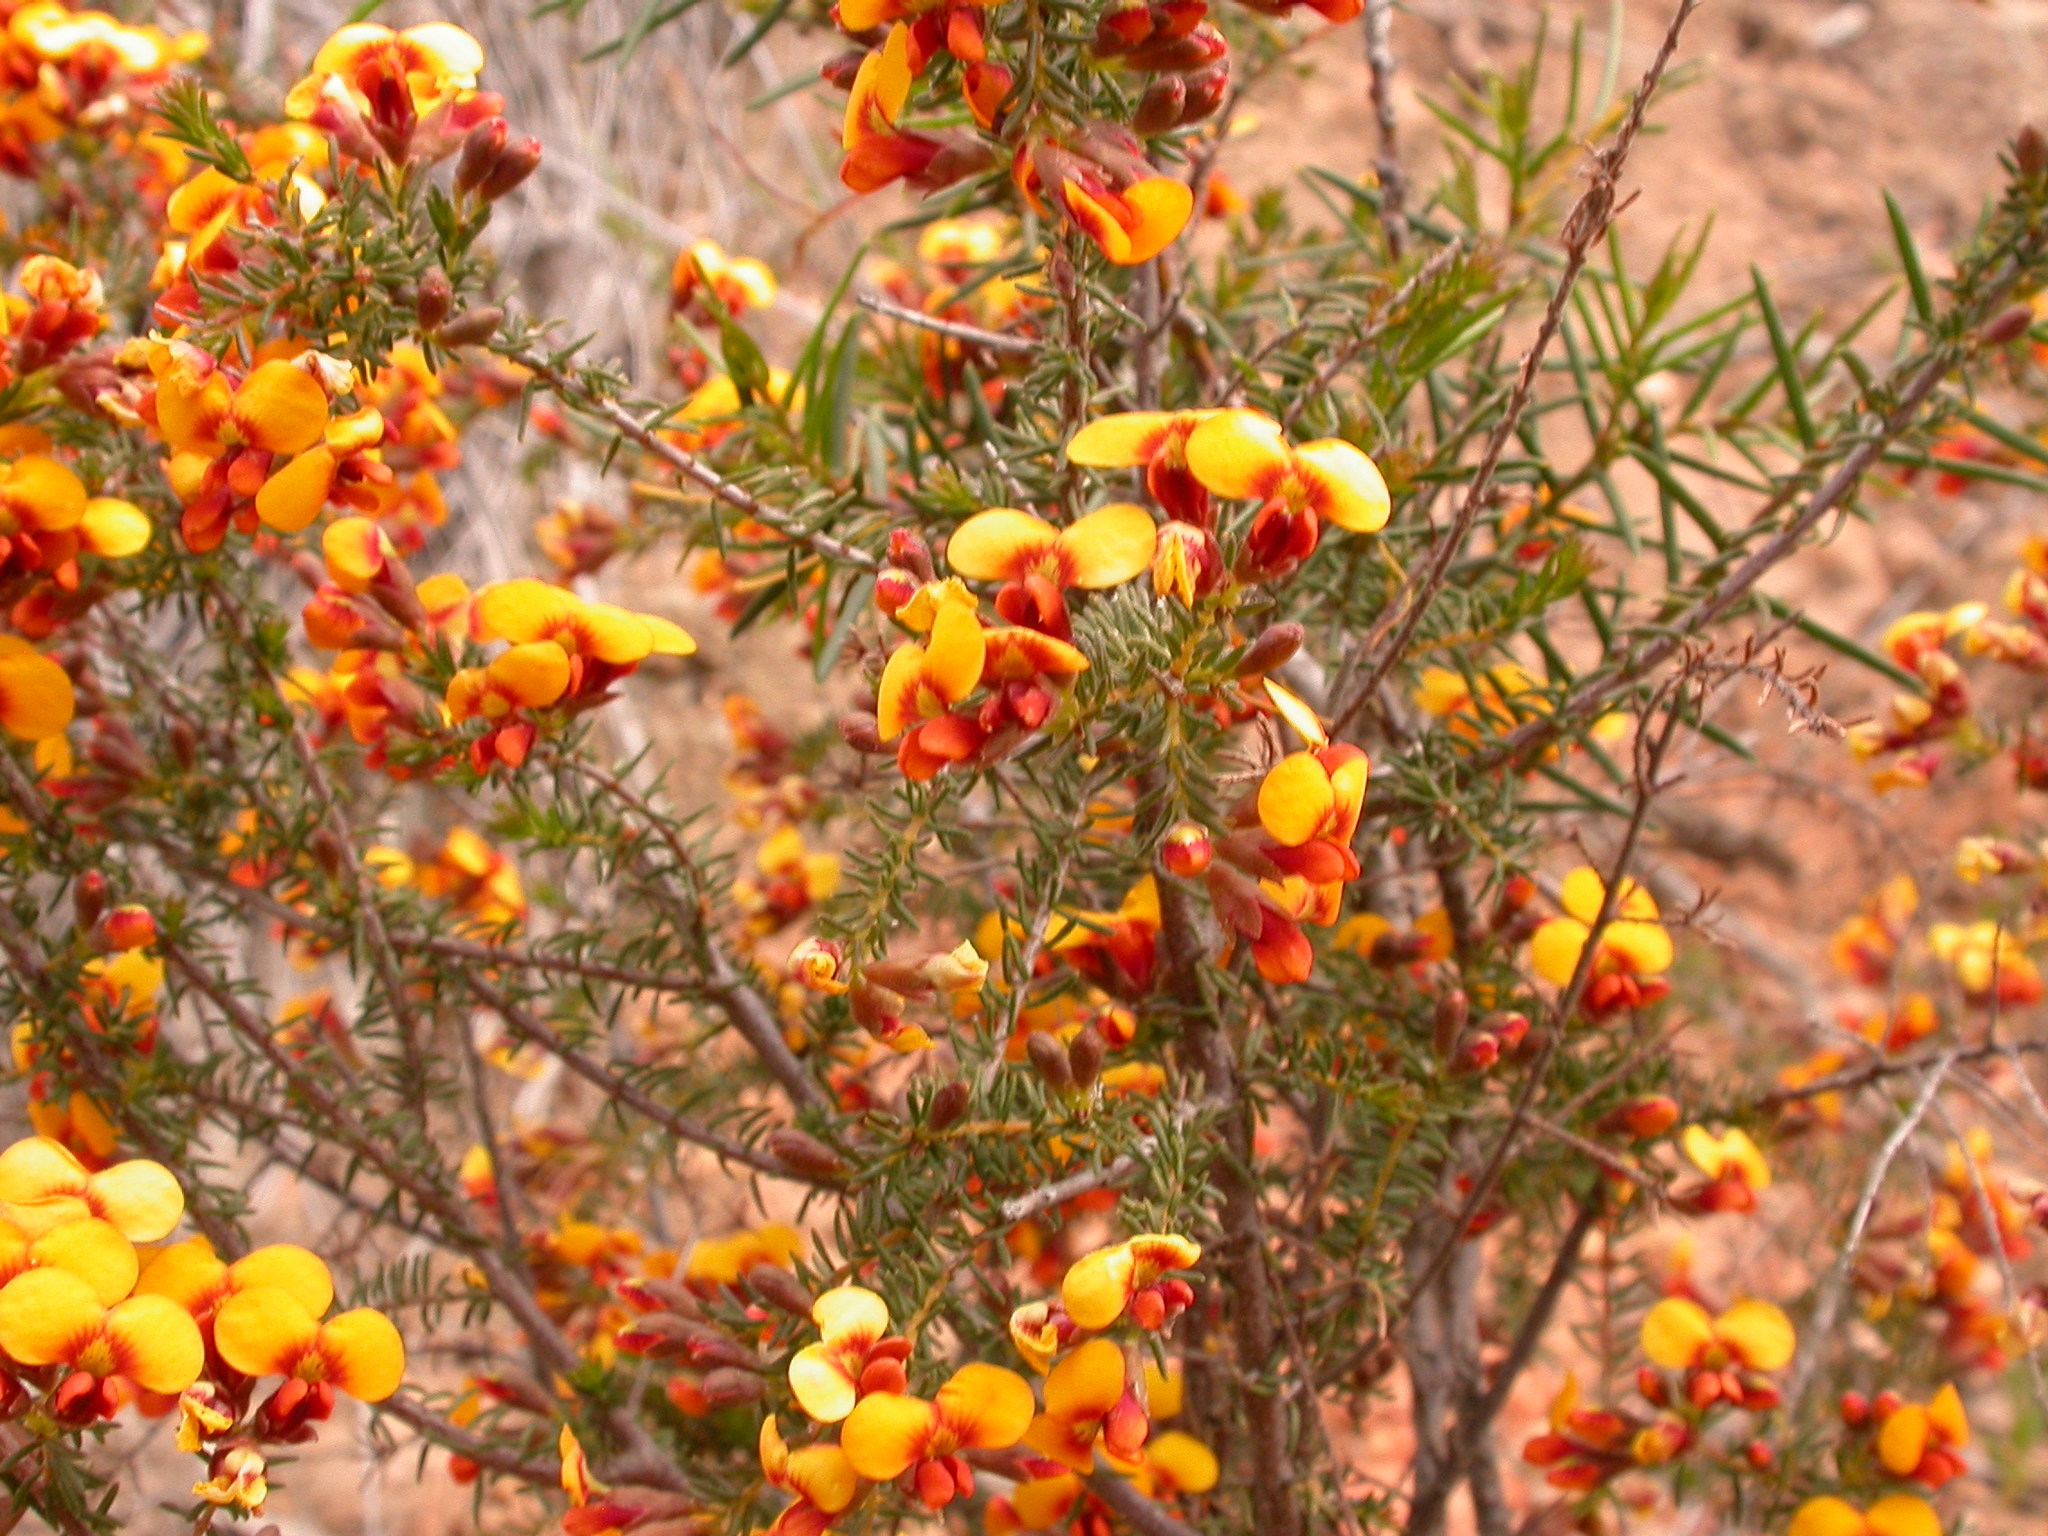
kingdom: Plantae
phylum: Tracheophyta
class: Magnoliopsida
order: Fabales
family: Fabaceae
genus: Dillwynia
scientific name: Dillwynia sericea
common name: Showy parrot-pea
